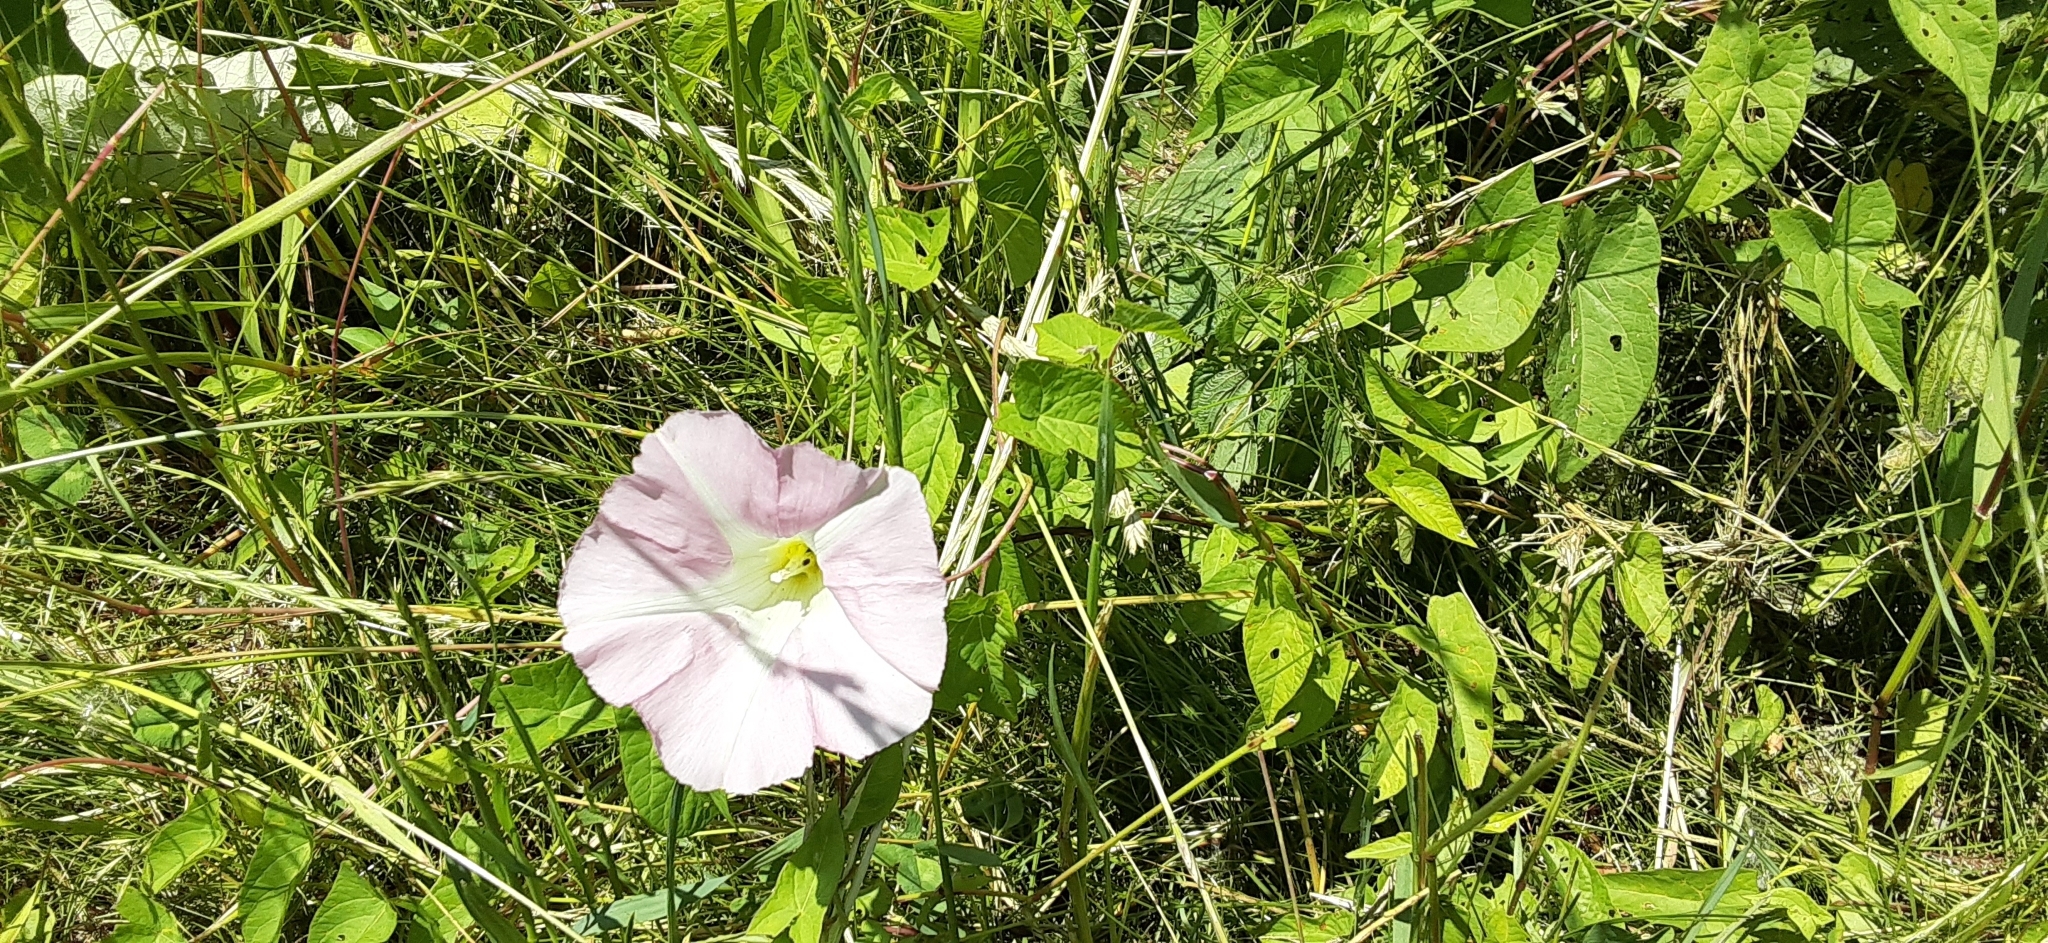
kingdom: Plantae
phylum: Tracheophyta
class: Magnoliopsida
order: Solanales
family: Convolvulaceae
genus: Calystegia
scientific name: Calystegia sepium
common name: Hedge bindweed
